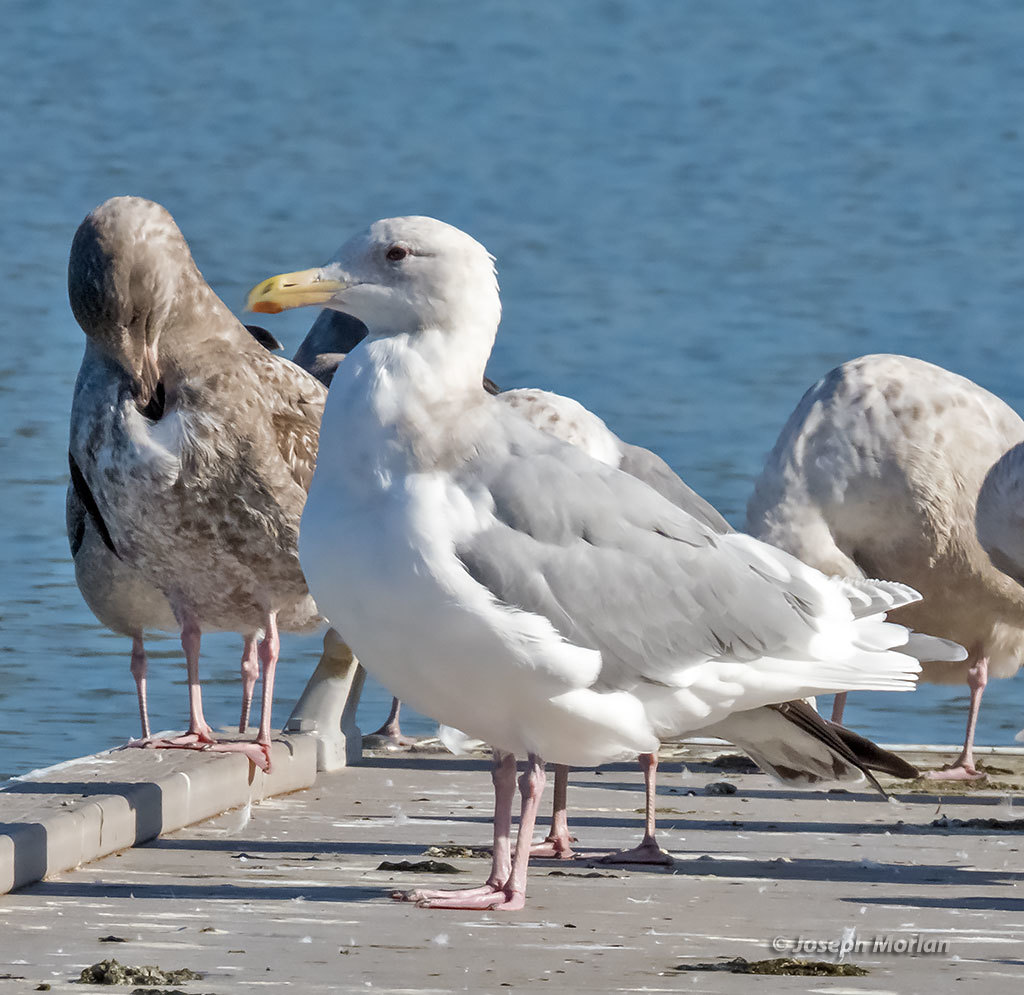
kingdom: Animalia
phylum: Chordata
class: Aves
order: Charadriiformes
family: Laridae
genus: Larus
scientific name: Larus glaucescens
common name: Glaucous-winged gull
